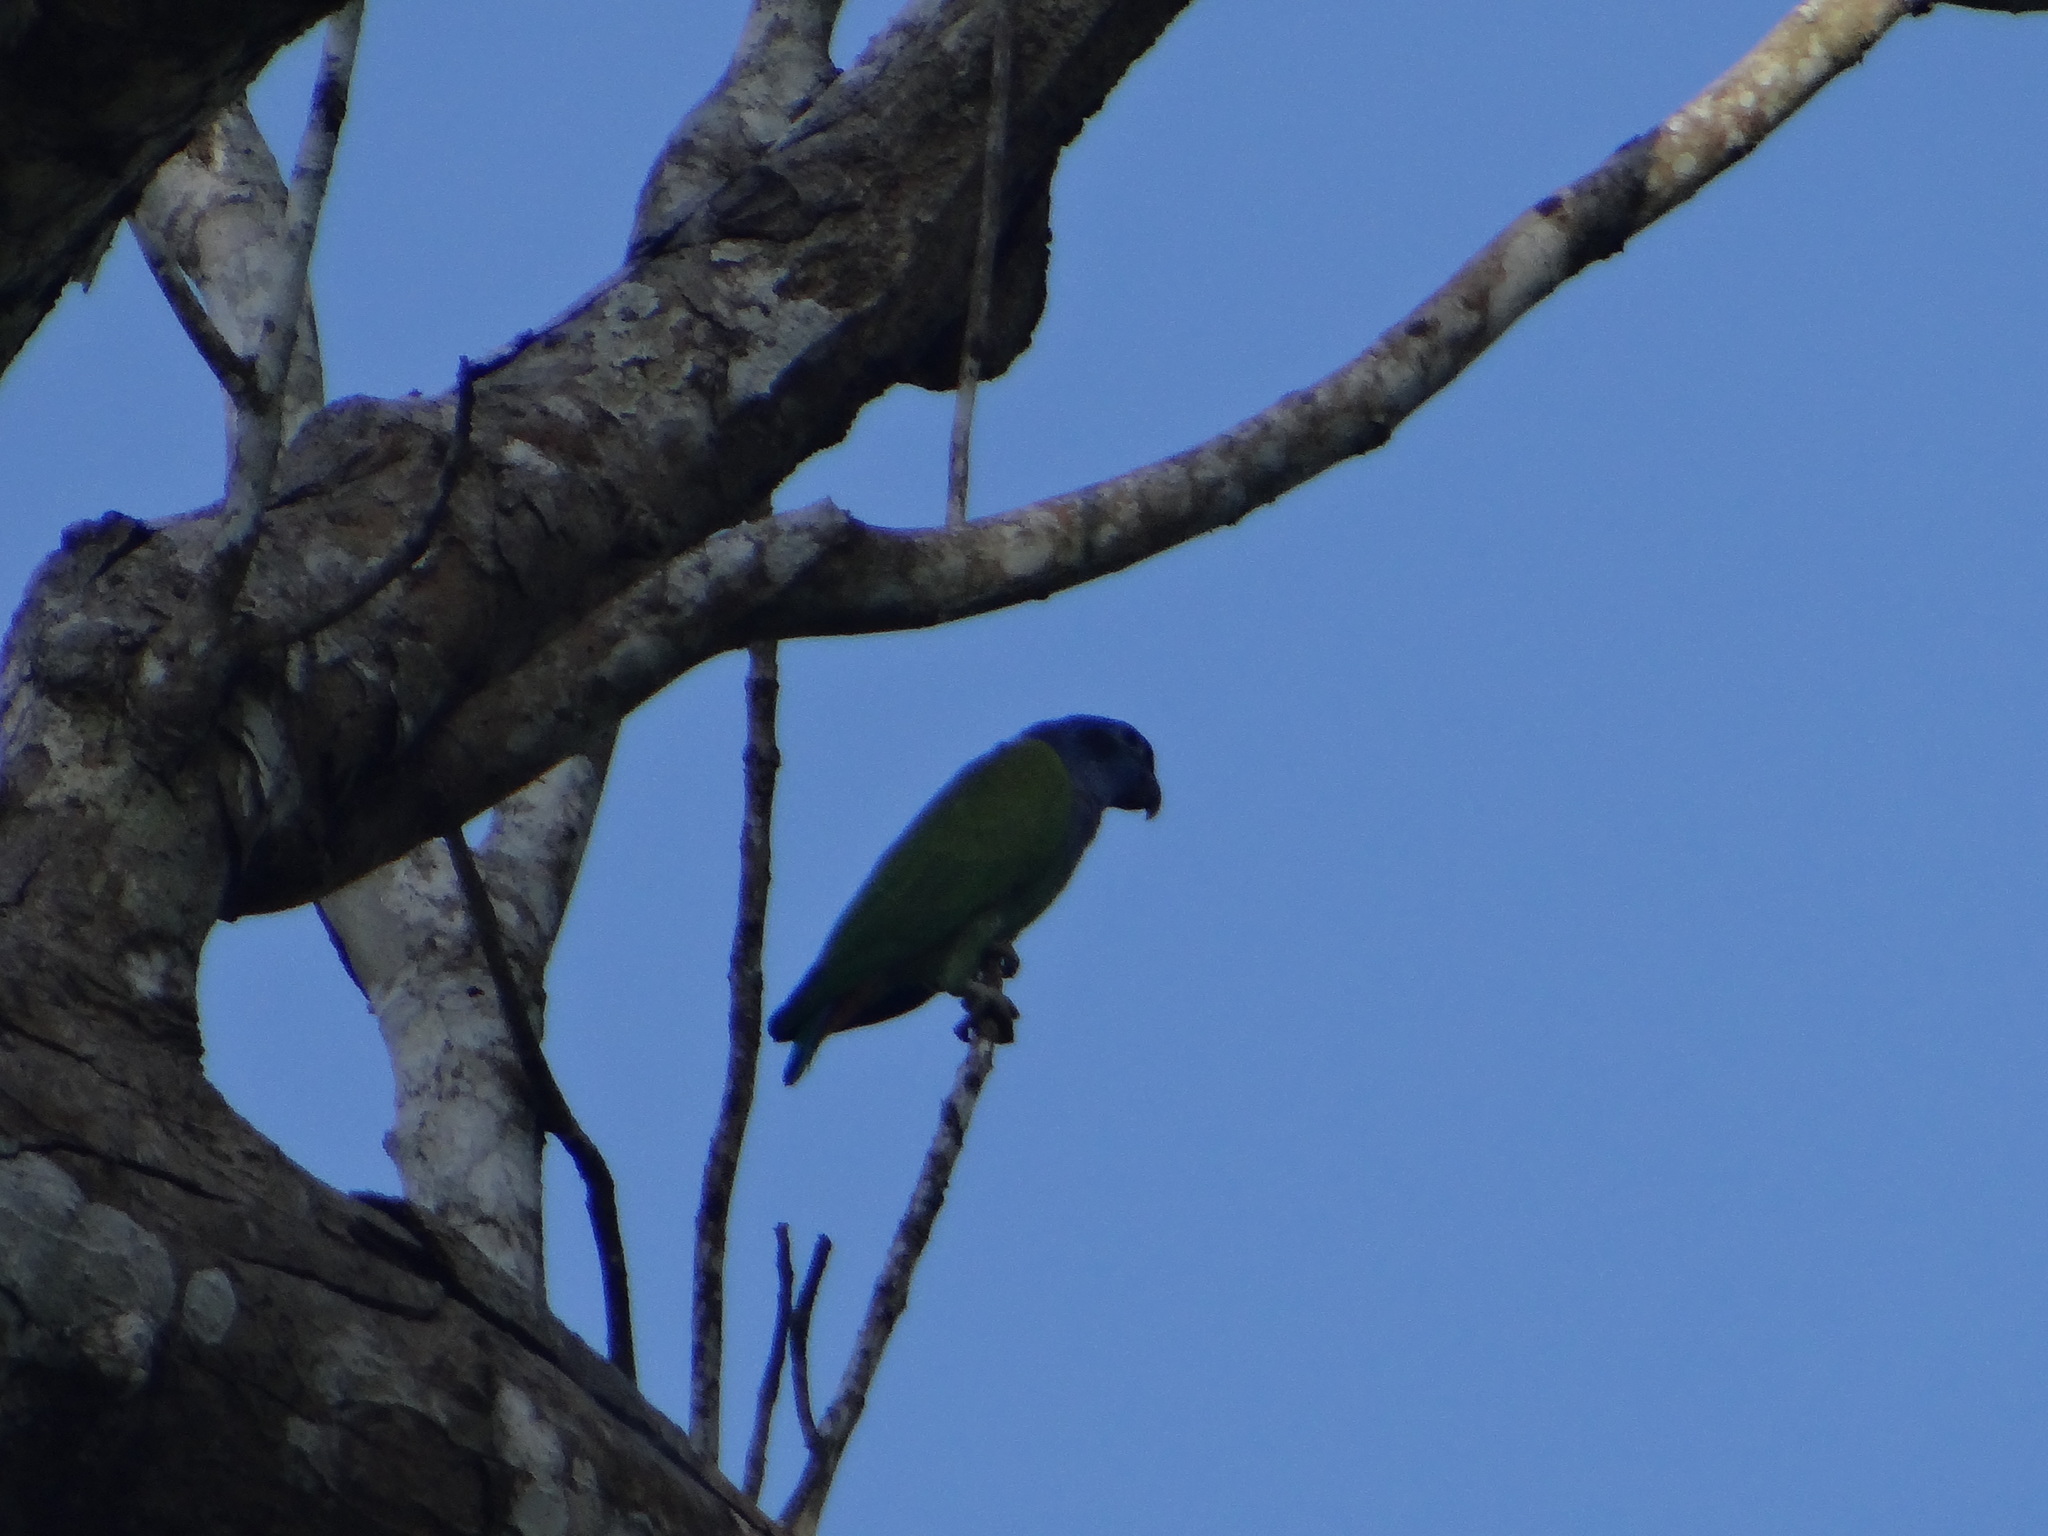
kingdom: Animalia
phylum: Chordata
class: Aves
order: Psittaciformes
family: Psittacidae
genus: Pionus
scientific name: Pionus menstruus
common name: Blue-headed parrot
